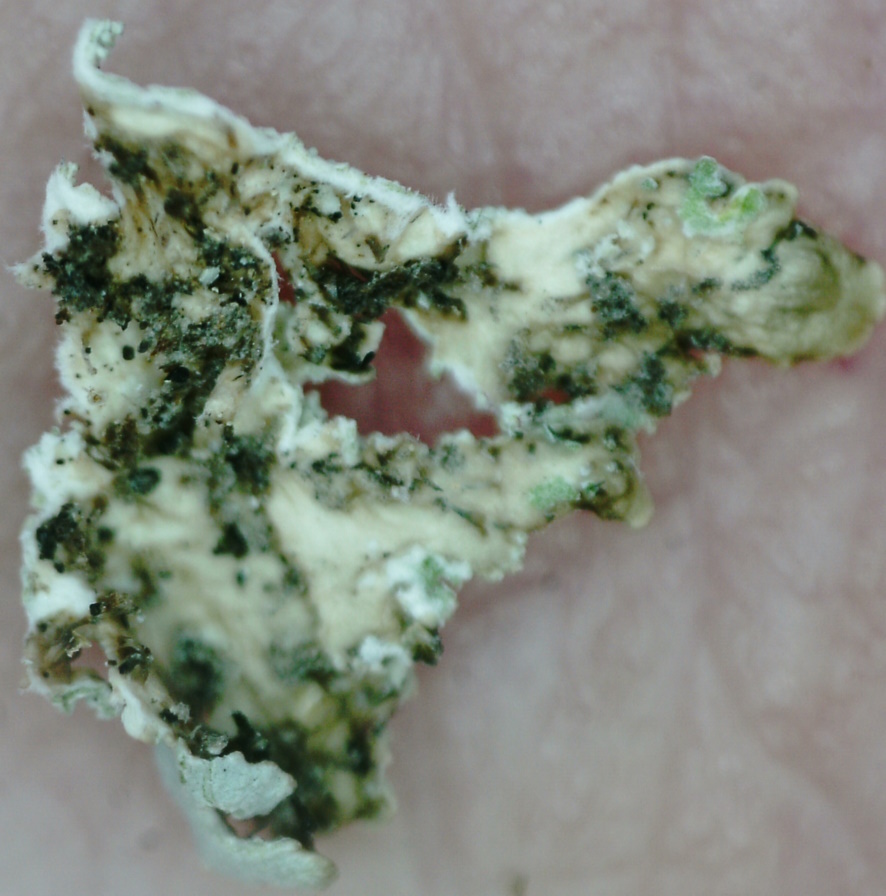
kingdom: Fungi
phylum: Ascomycota
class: Lecanoromycetes
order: Lecanorales
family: Parmeliaceae
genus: Imshaugia
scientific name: Imshaugia aleurites
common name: Salted starburst lichen
